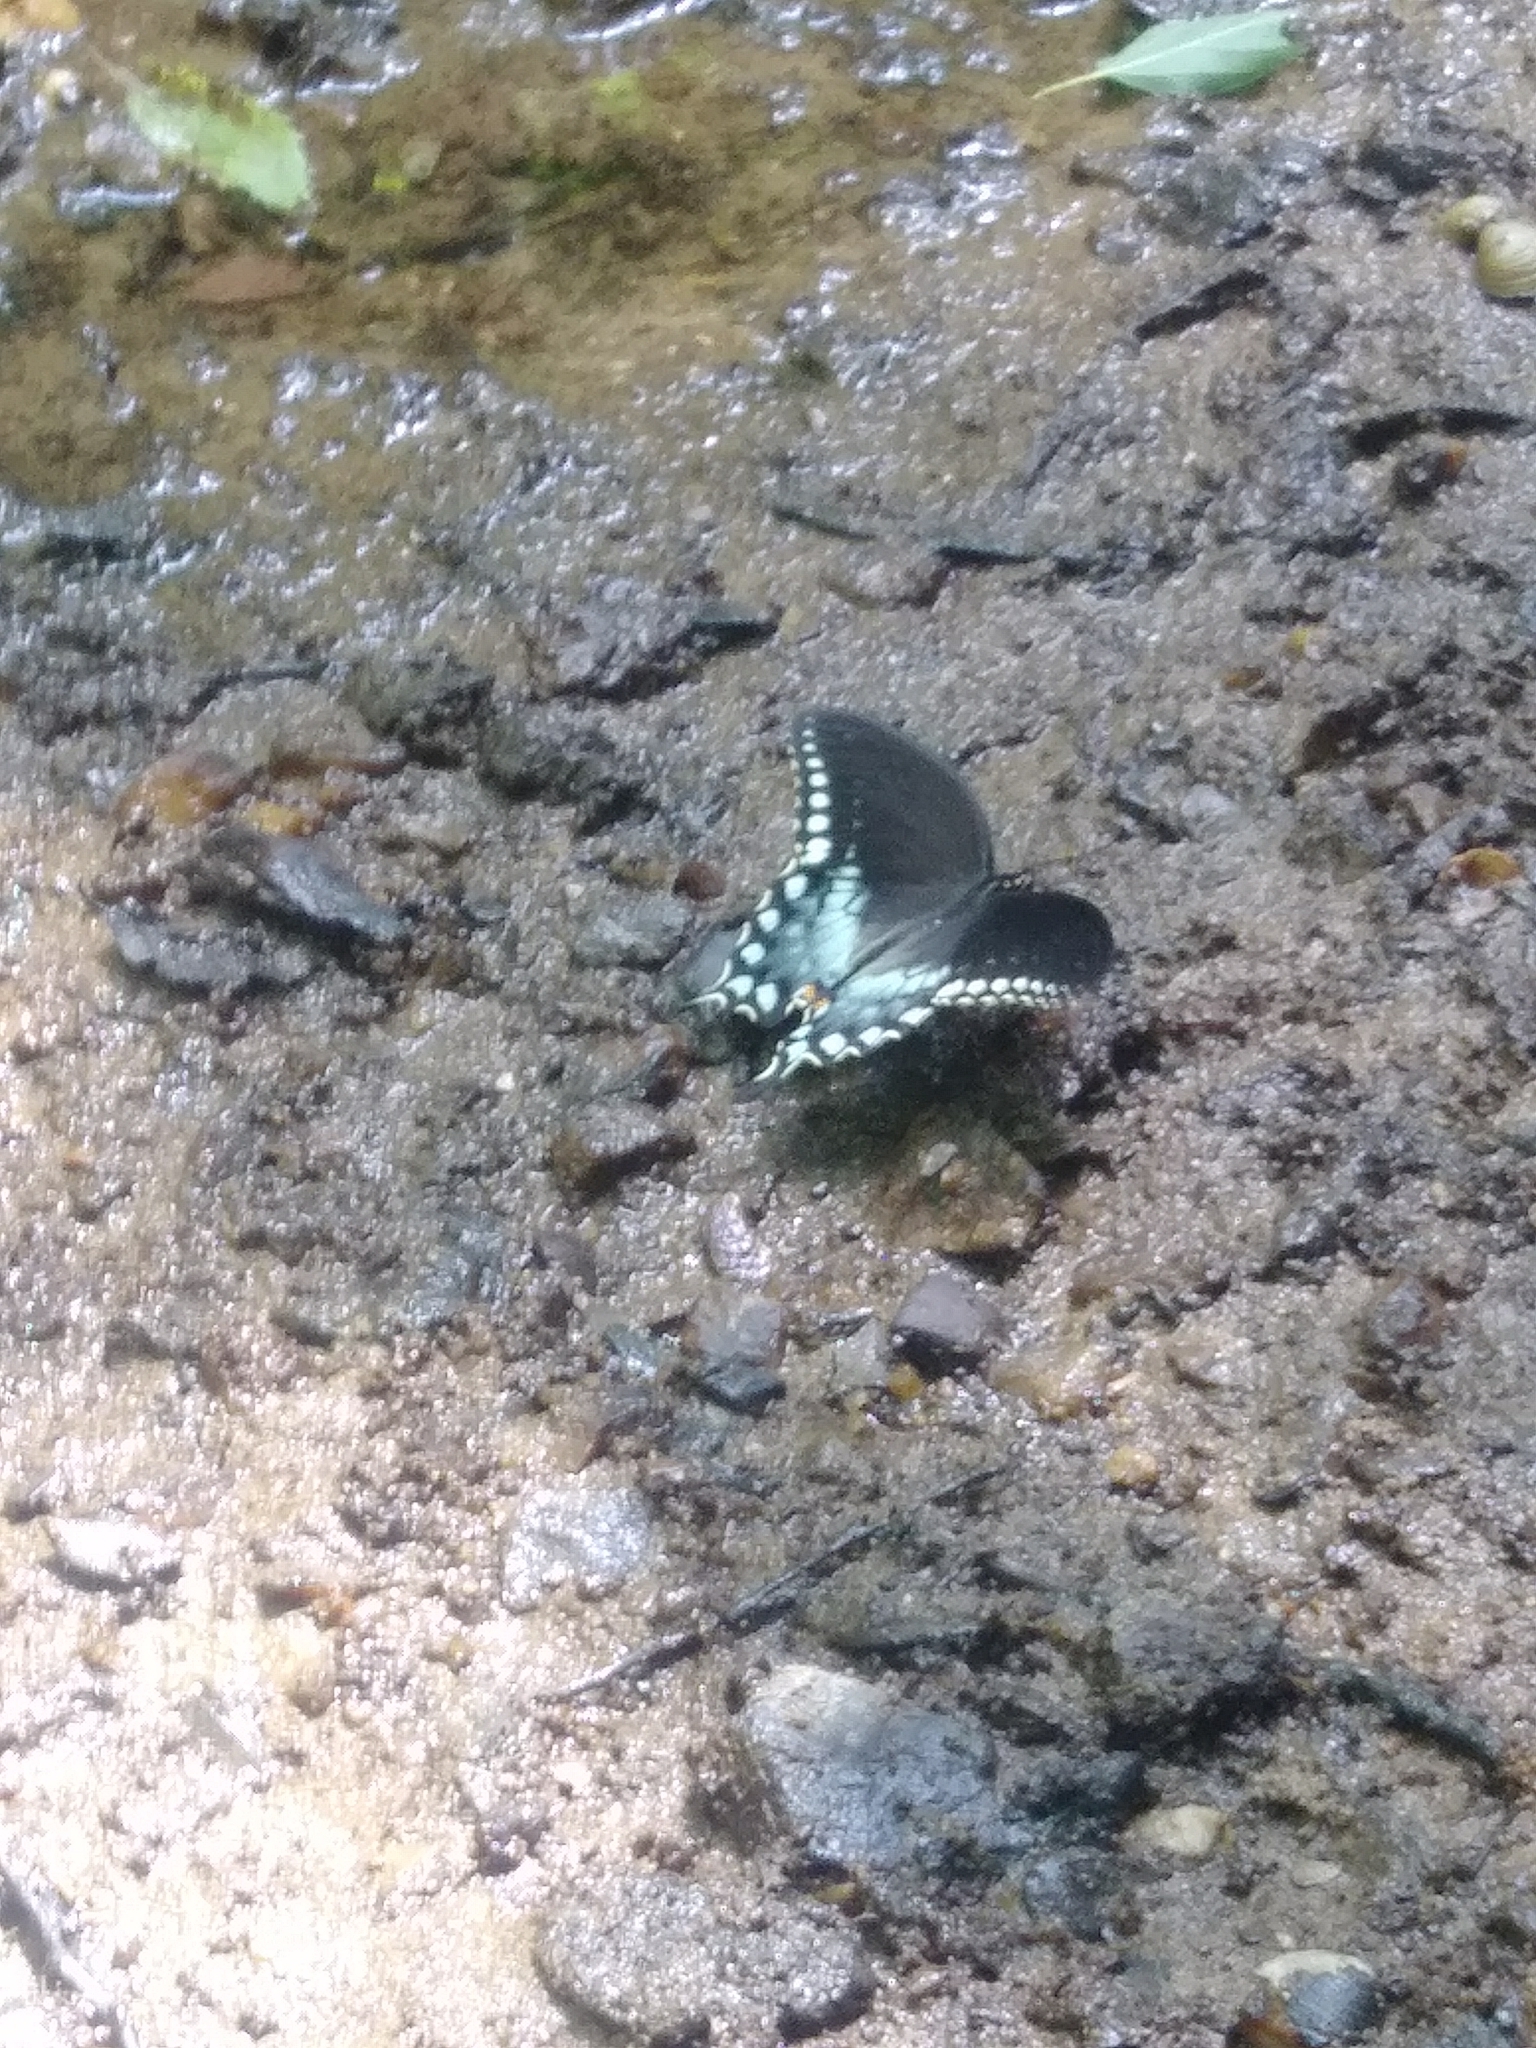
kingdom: Animalia
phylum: Arthropoda
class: Insecta
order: Lepidoptera
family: Papilionidae
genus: Papilio
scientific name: Papilio troilus
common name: Spicebush swallowtail
